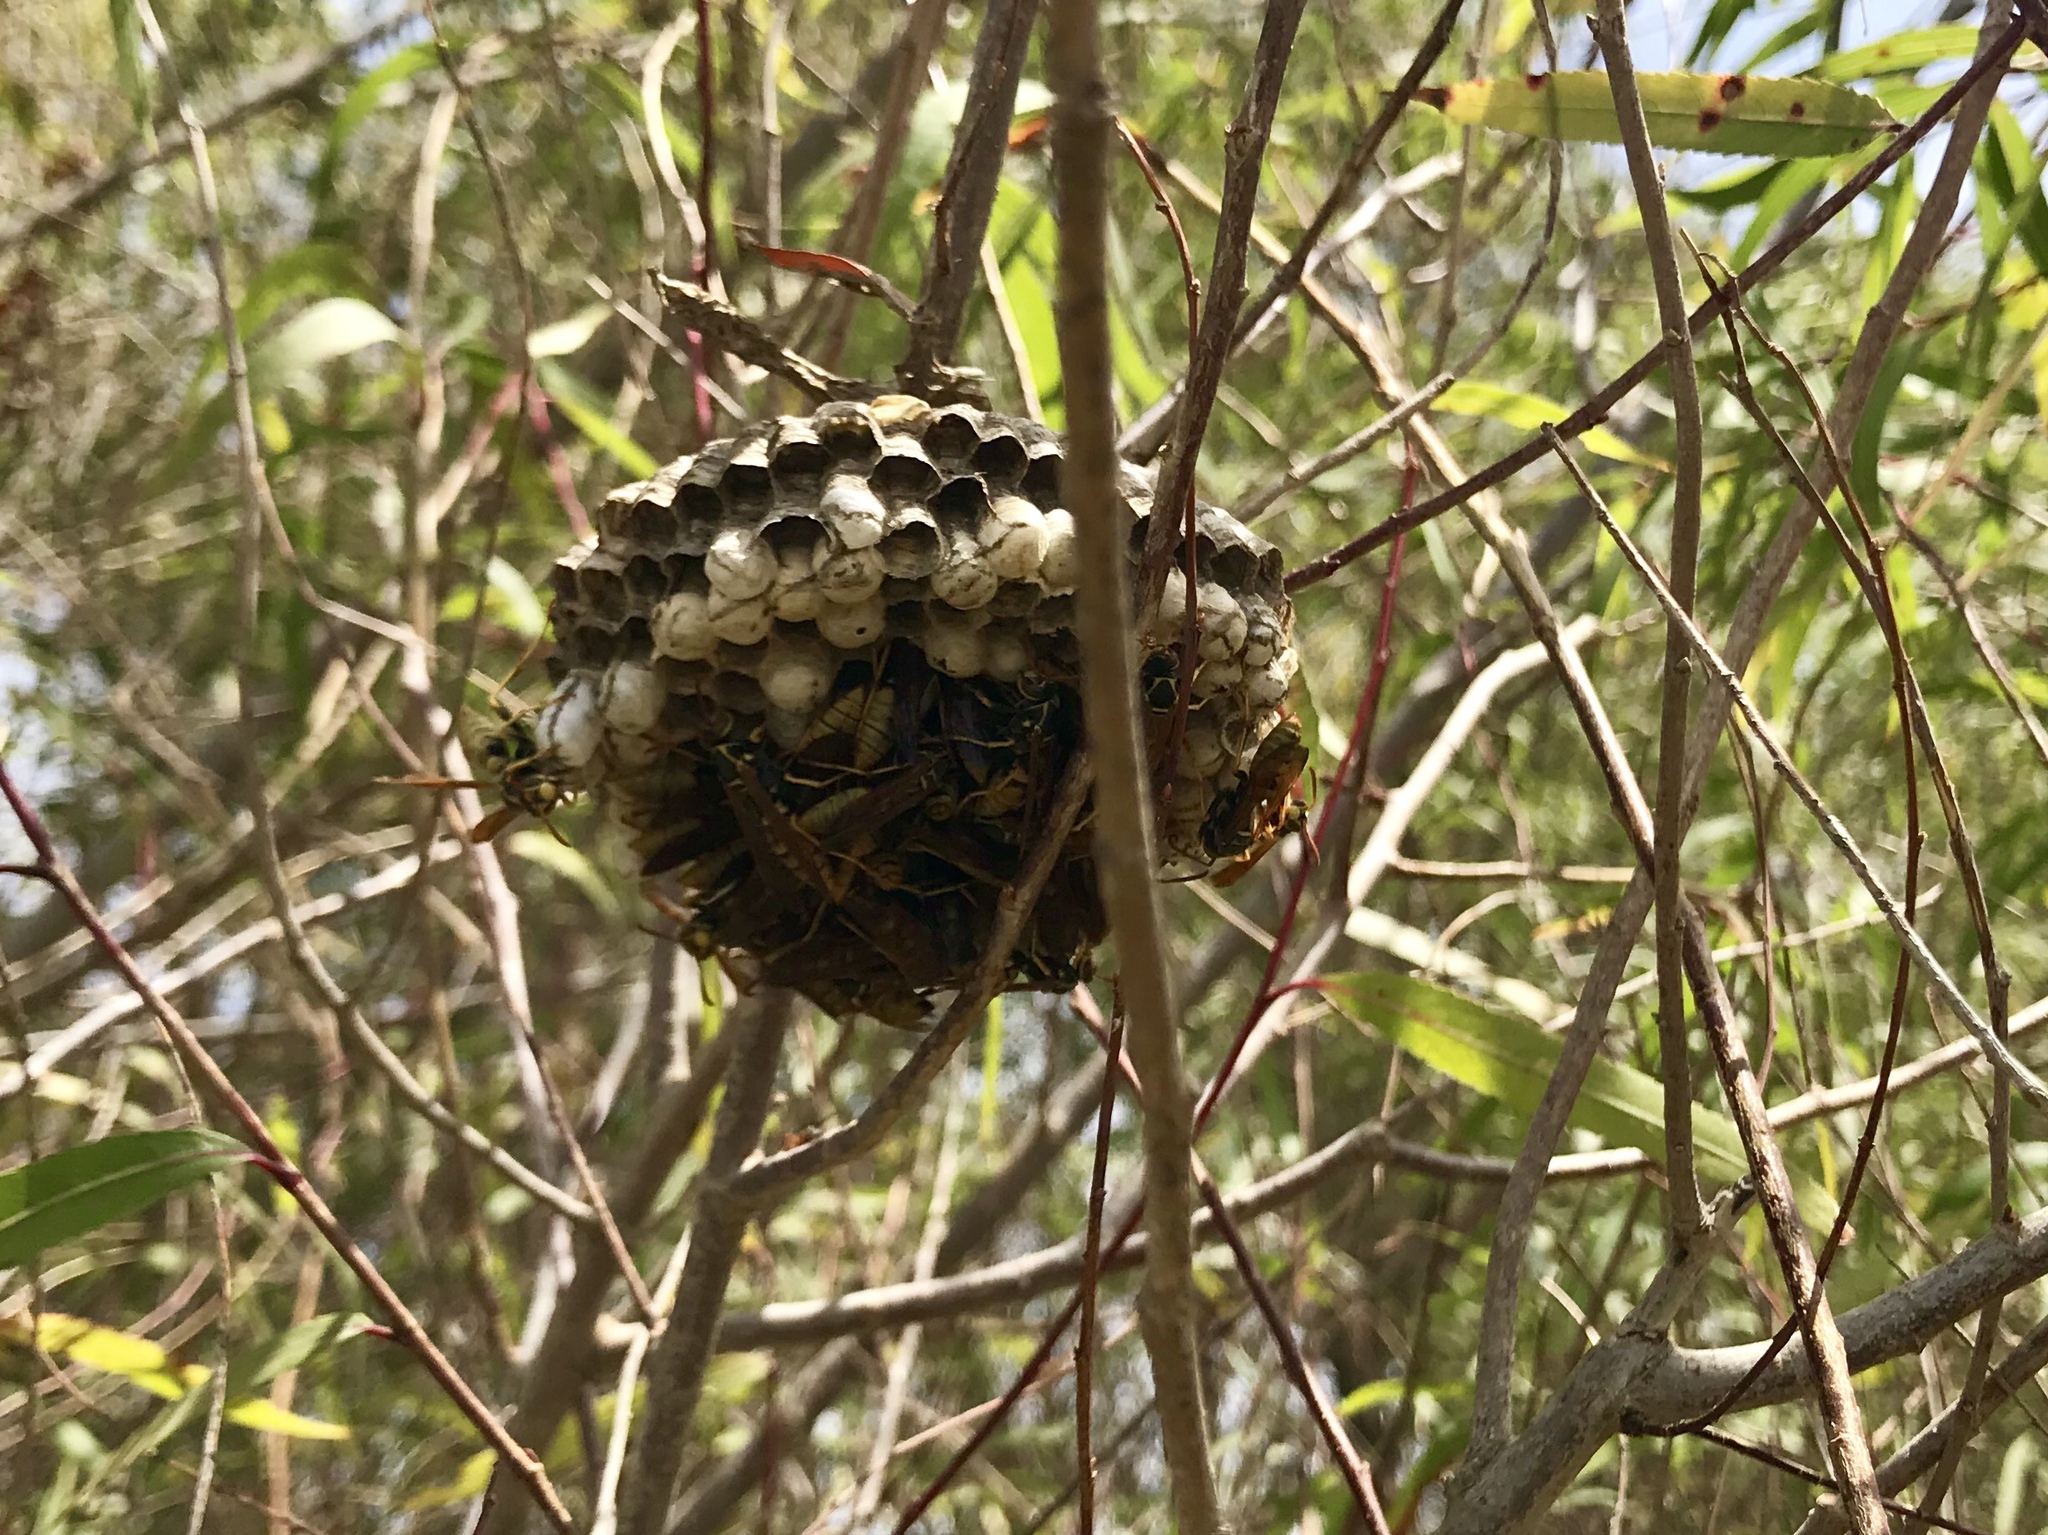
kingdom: Animalia
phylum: Arthropoda
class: Insecta
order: Hymenoptera
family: Eumenidae
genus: Polistes
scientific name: Polistes aurifer
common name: Paper wasp
